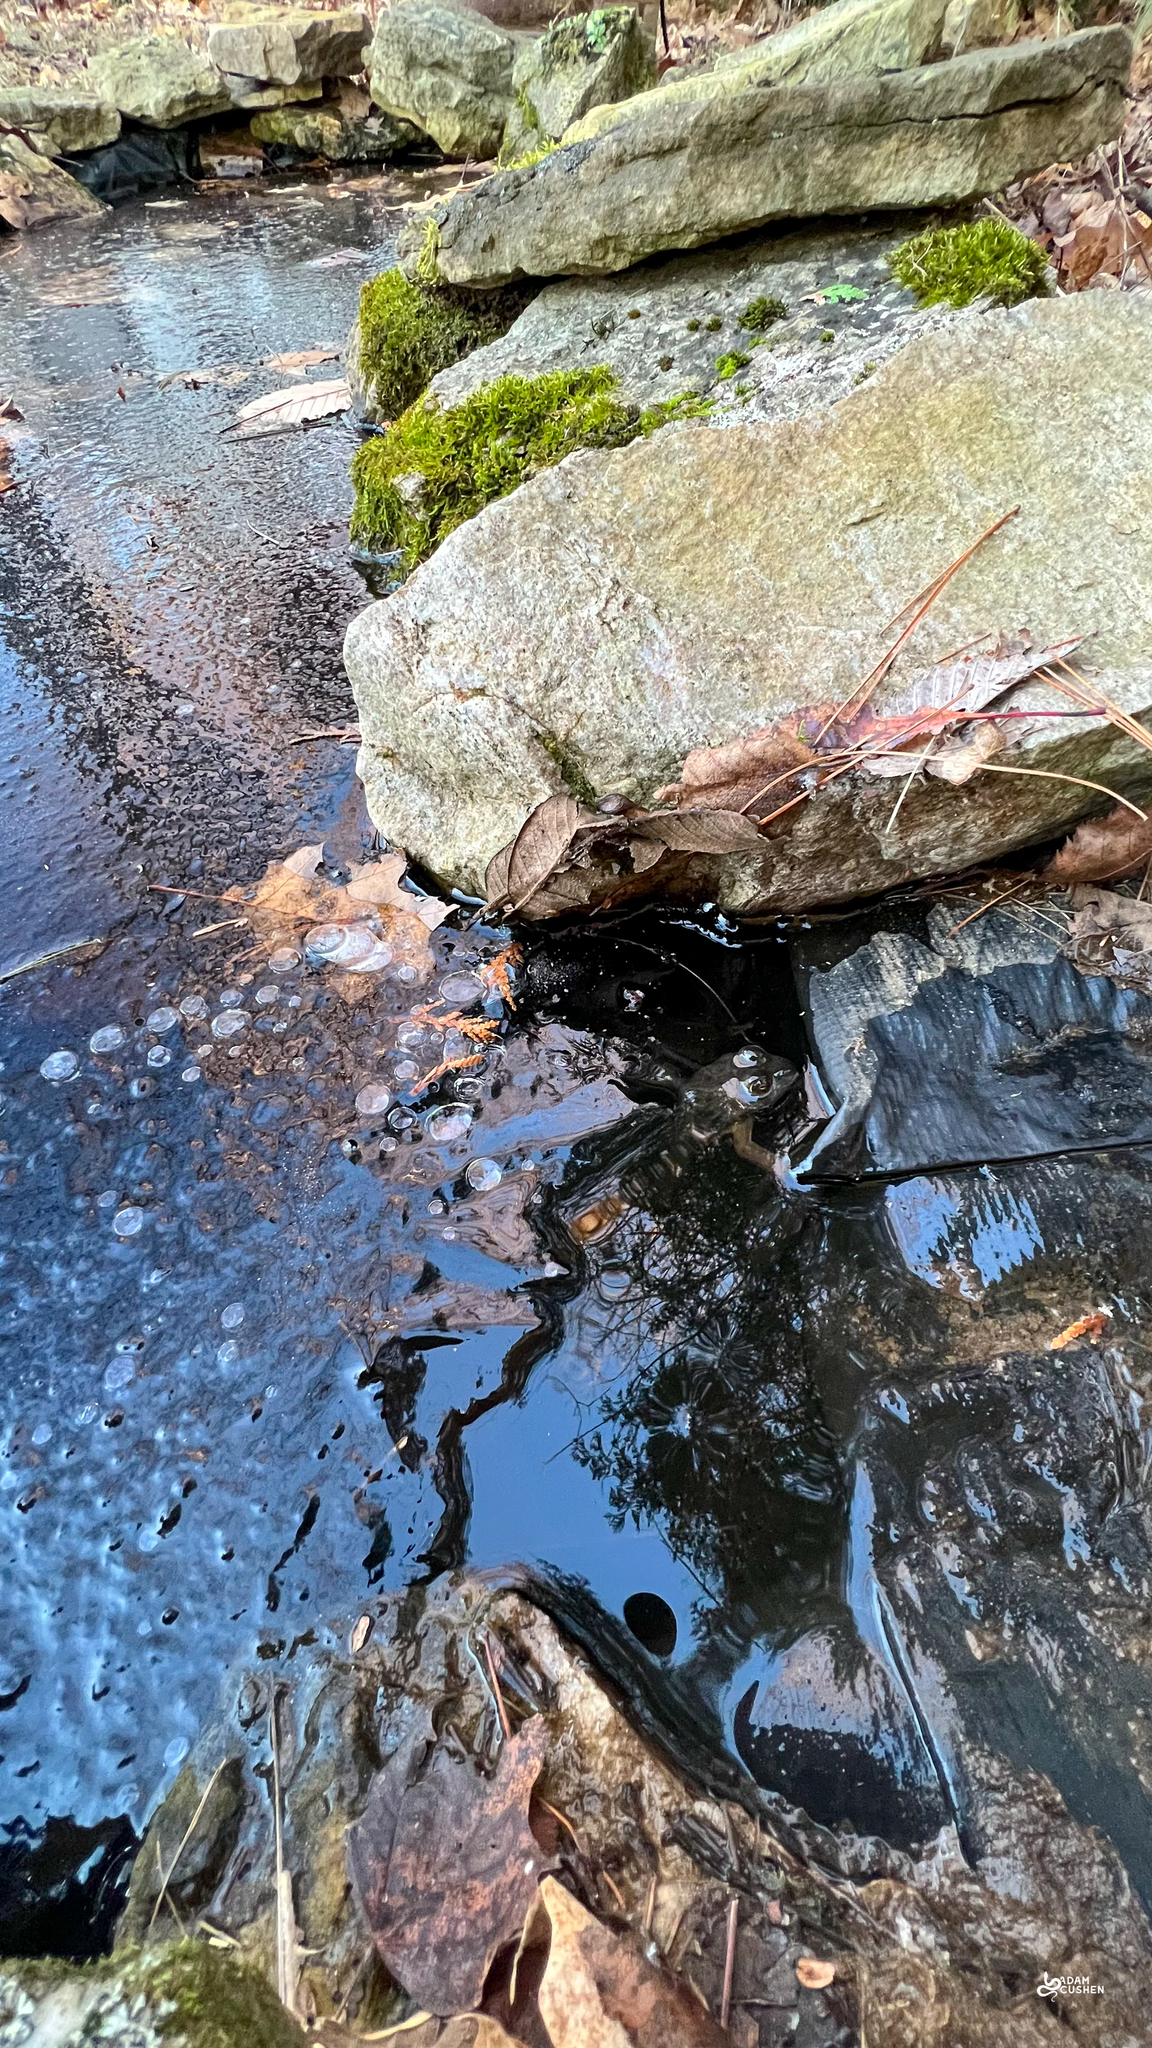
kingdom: Animalia
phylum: Chordata
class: Amphibia
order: Anura
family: Ranidae
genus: Lithobates
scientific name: Lithobates clamitans
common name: Green frog
